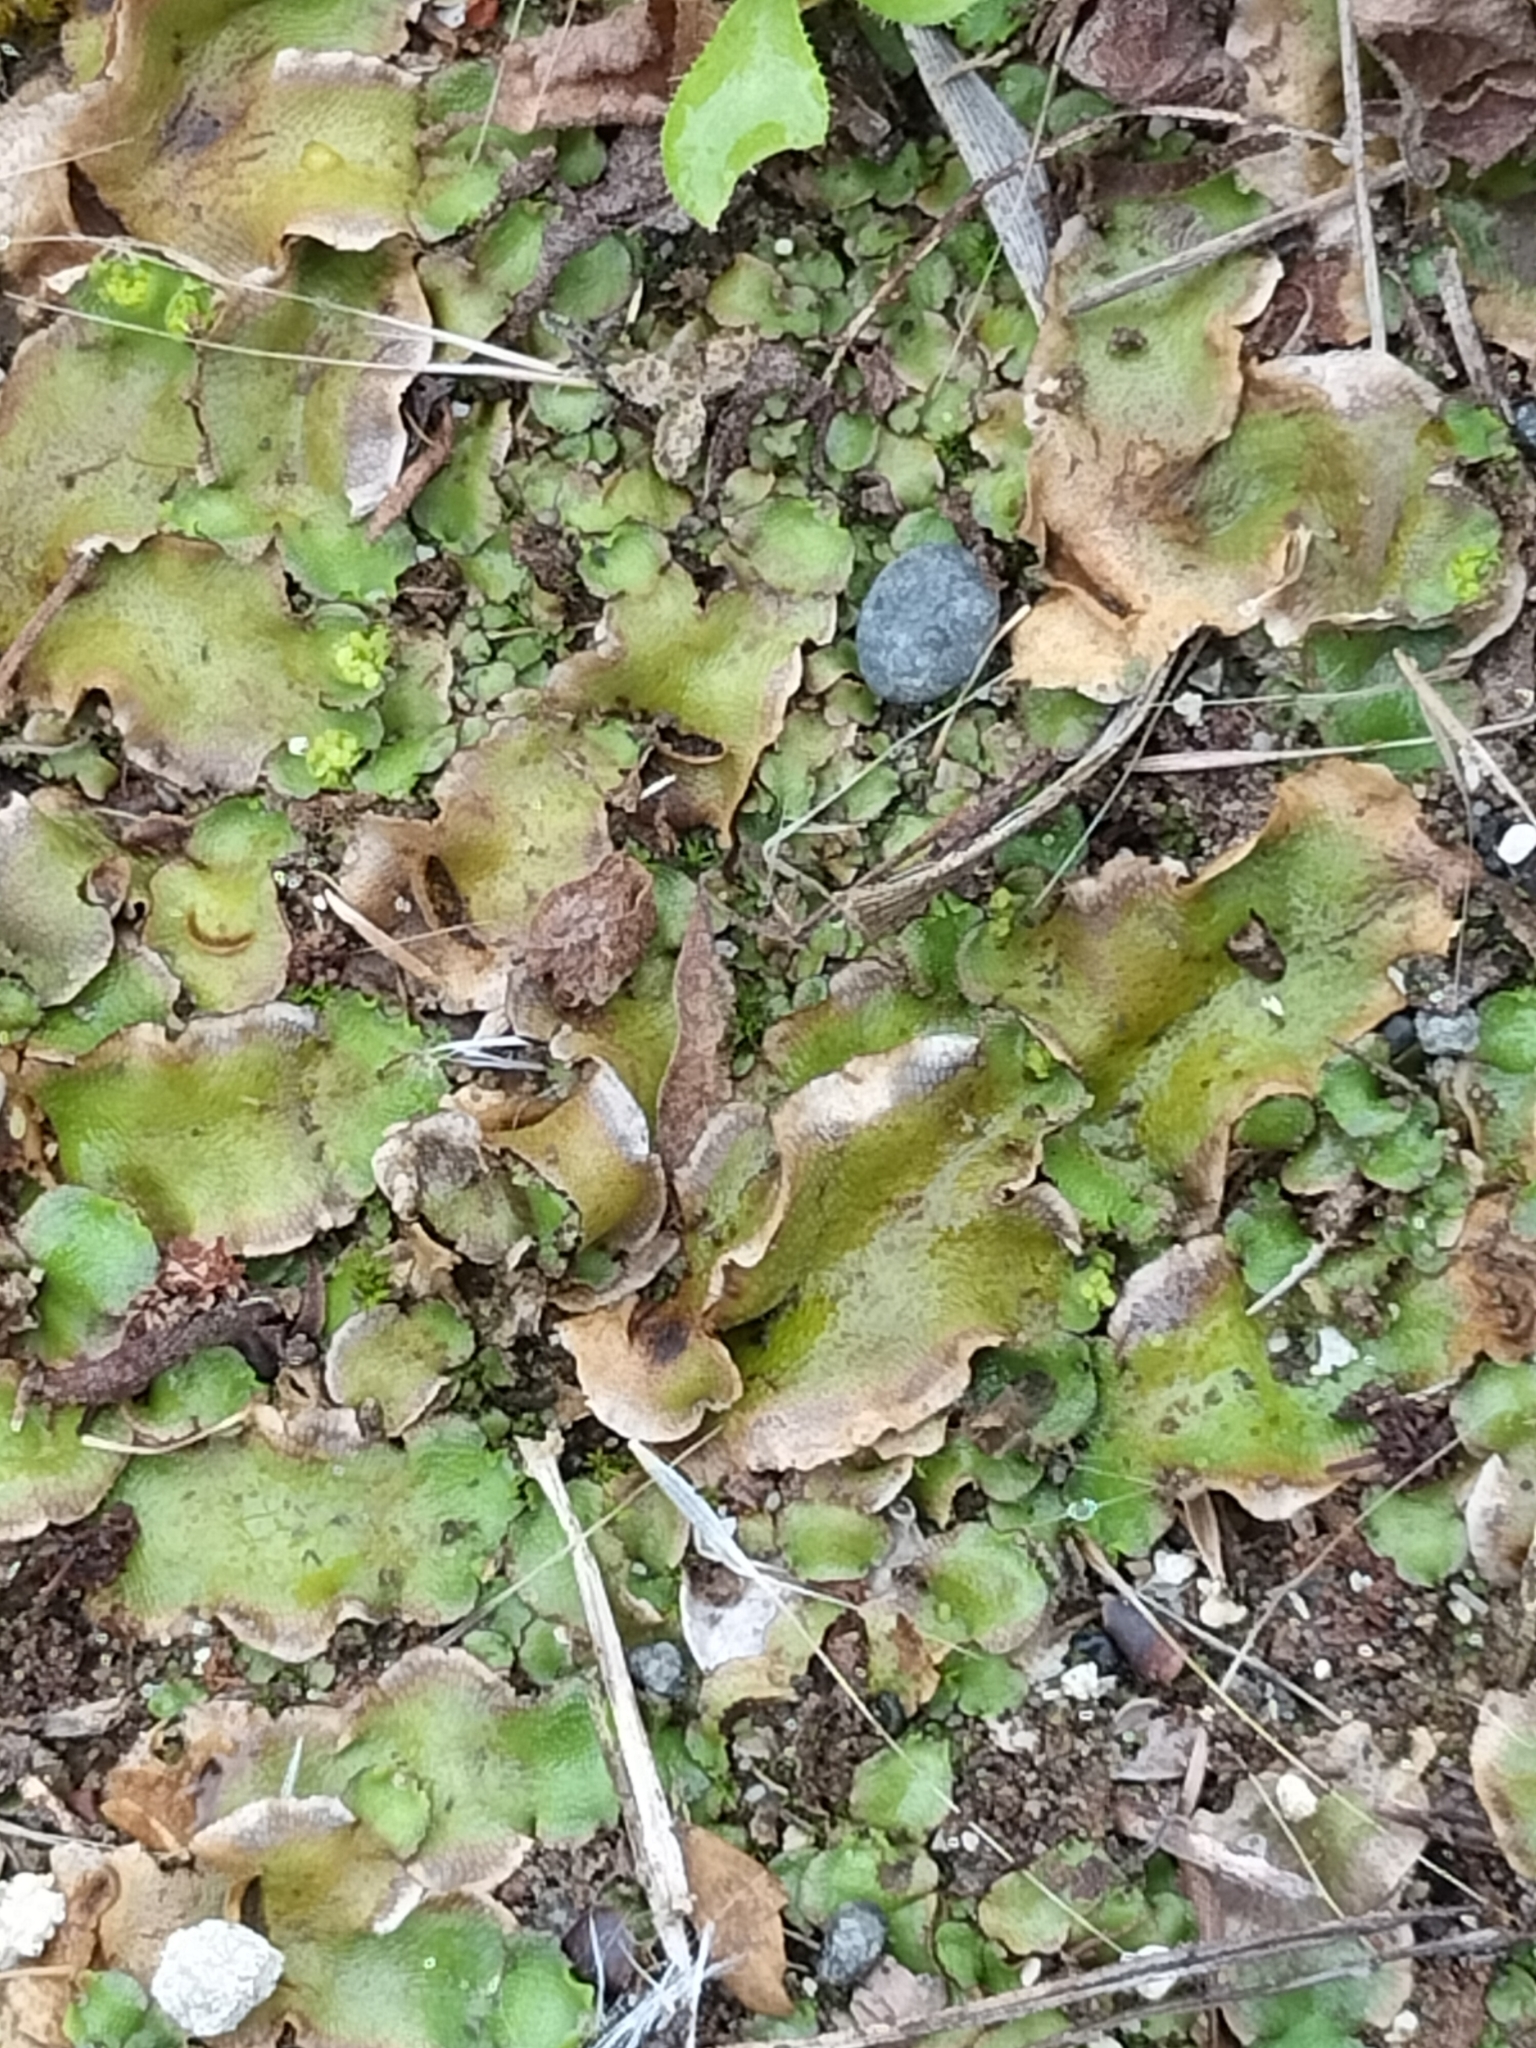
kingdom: Plantae
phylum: Marchantiophyta
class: Marchantiopsida
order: Lunulariales
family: Lunulariaceae
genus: Lunularia
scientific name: Lunularia cruciata
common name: Crescent-cup liverwort
